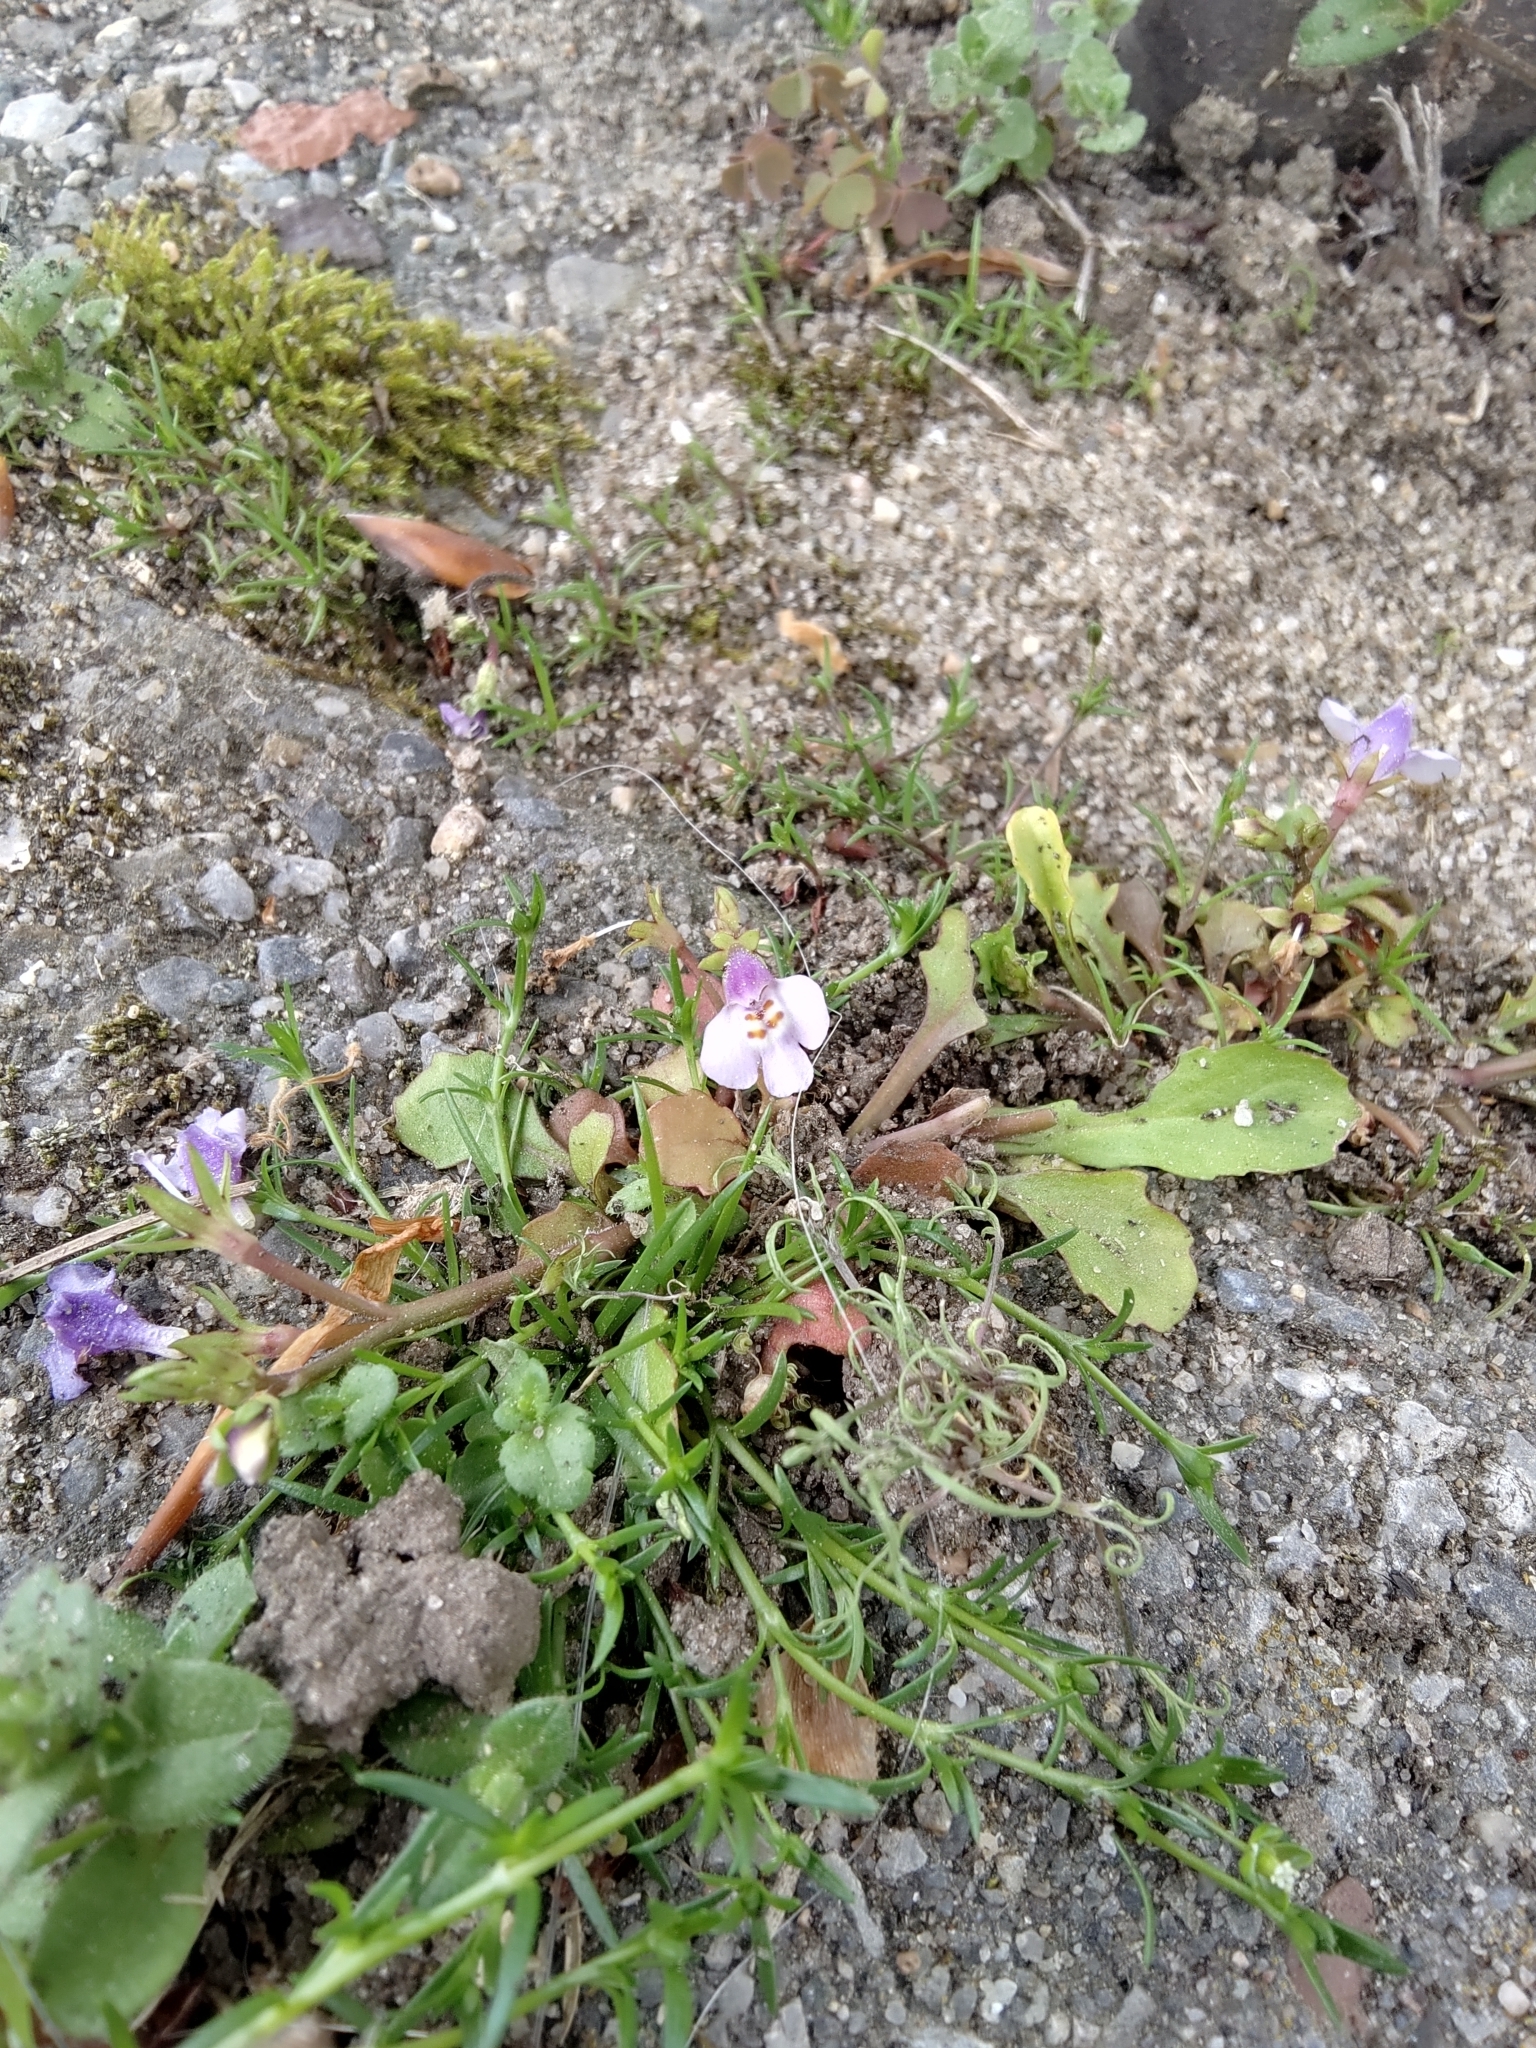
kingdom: Plantae
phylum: Tracheophyta
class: Magnoliopsida
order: Lamiales
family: Mazaceae
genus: Mazus
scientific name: Mazus pumilus
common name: Japanese mazus
